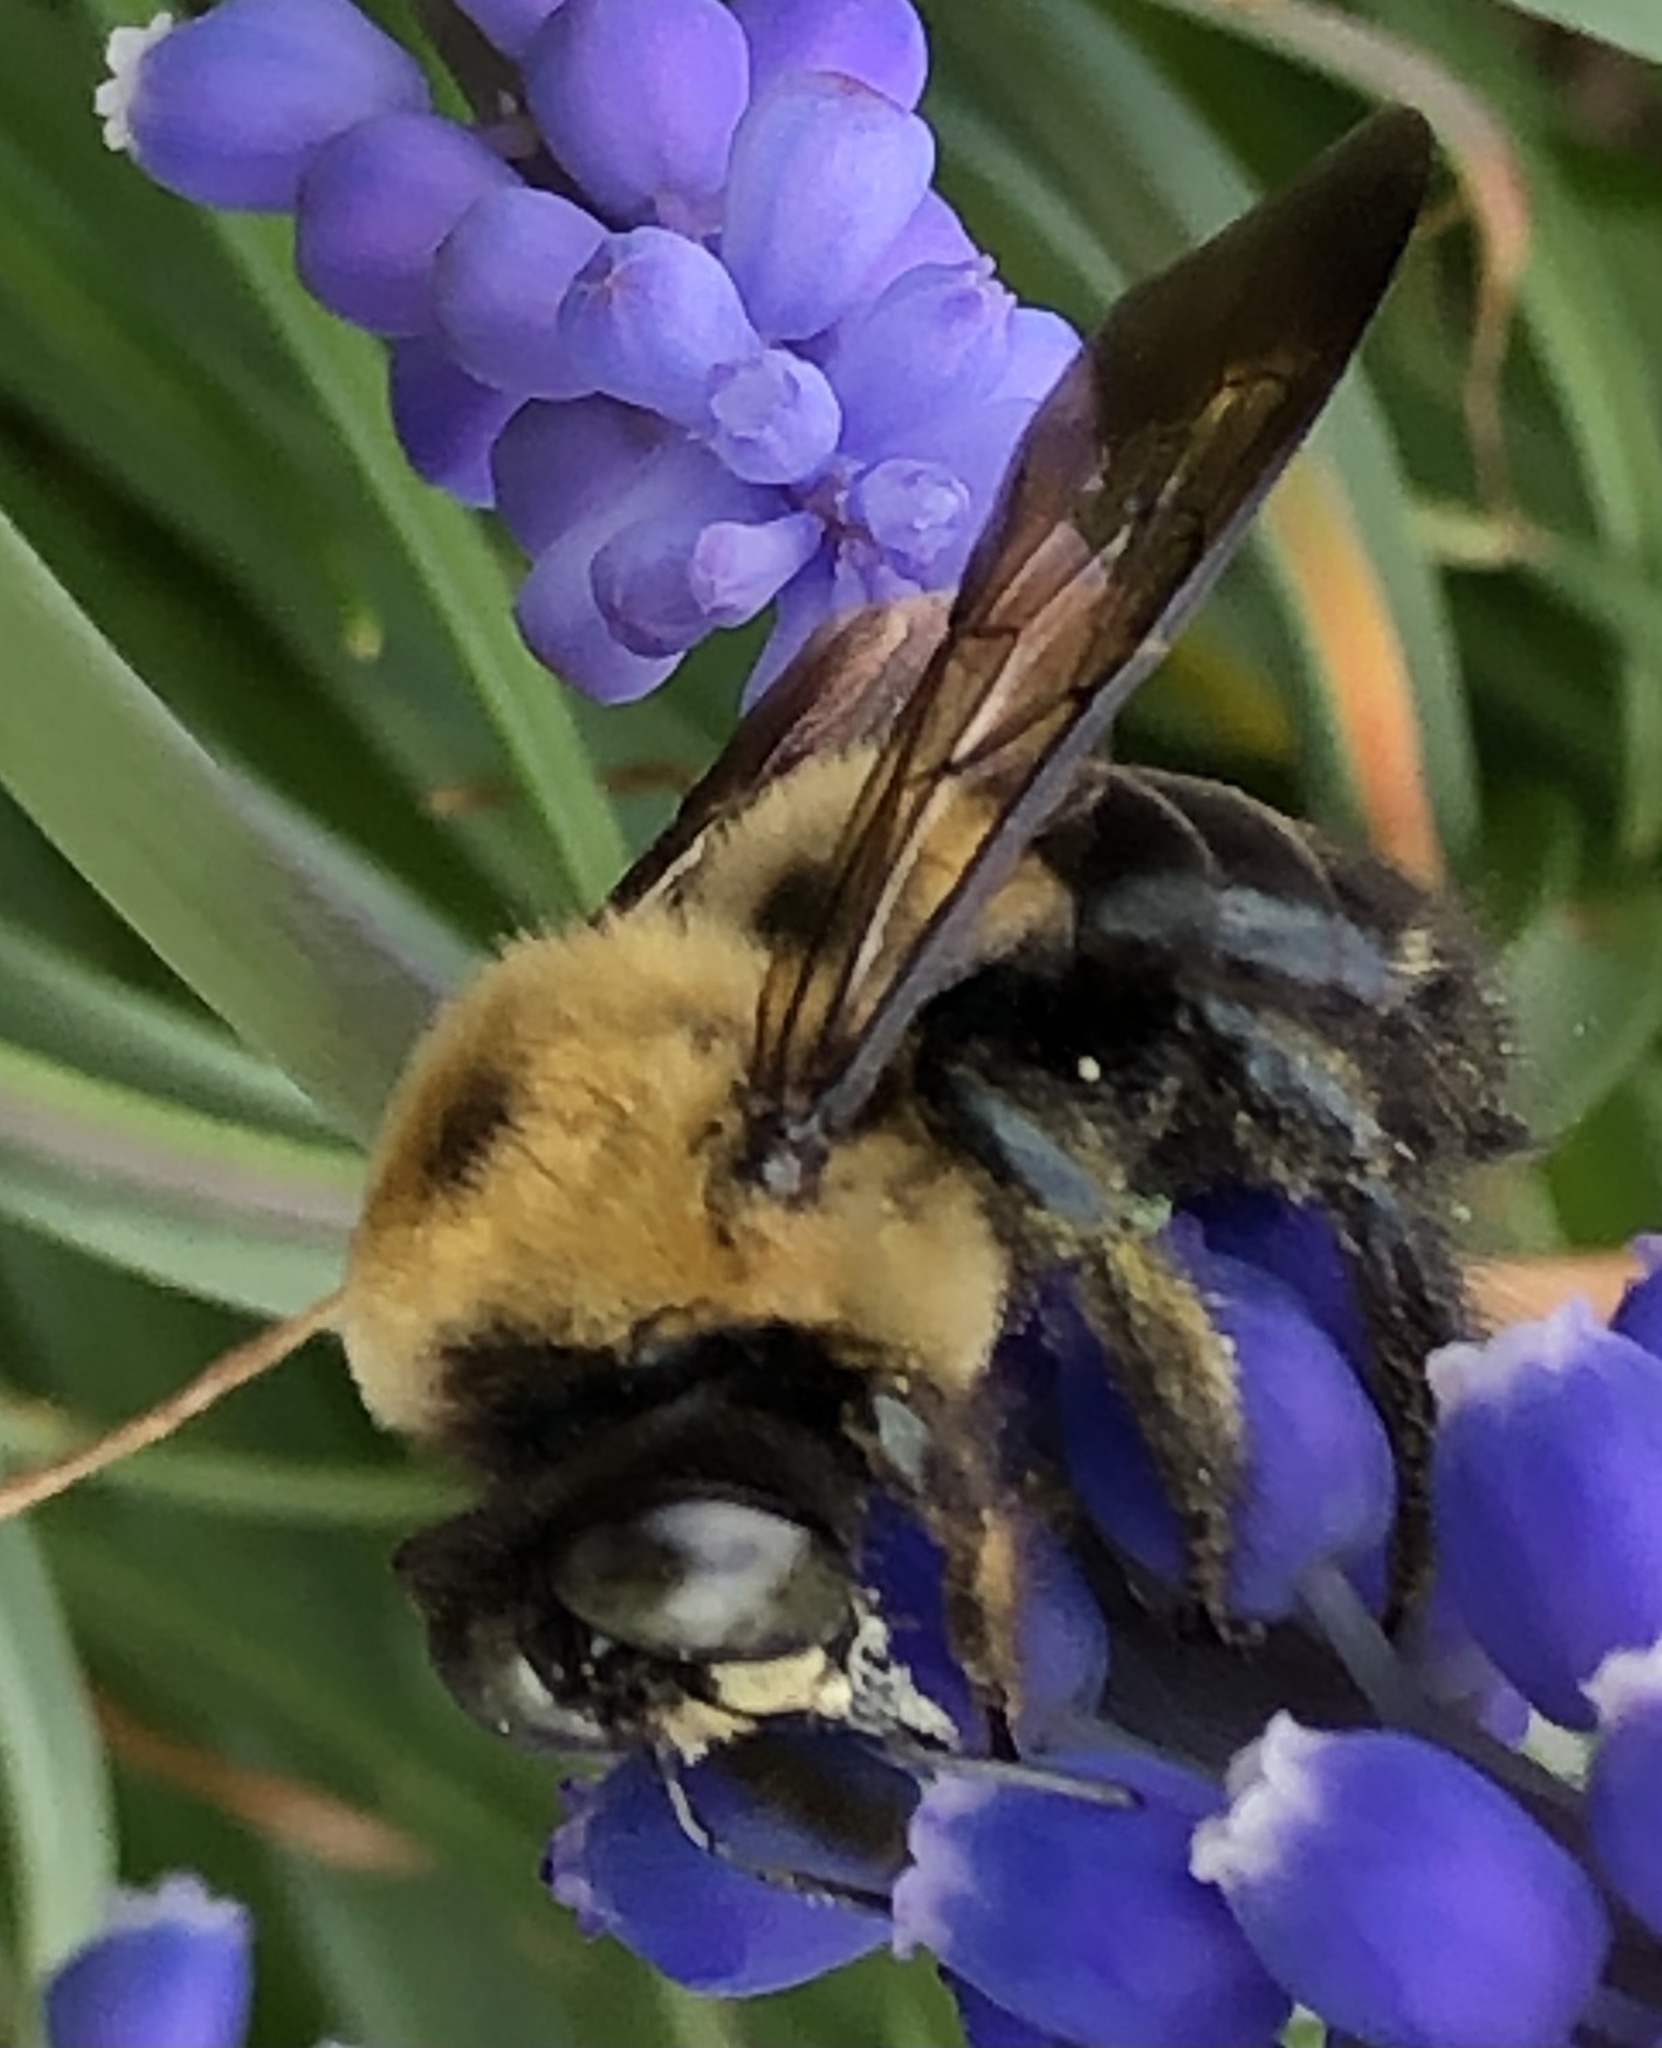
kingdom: Animalia
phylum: Arthropoda
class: Insecta
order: Hymenoptera
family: Apidae
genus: Xylocopa
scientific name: Xylocopa virginica
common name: Carpenter bee
